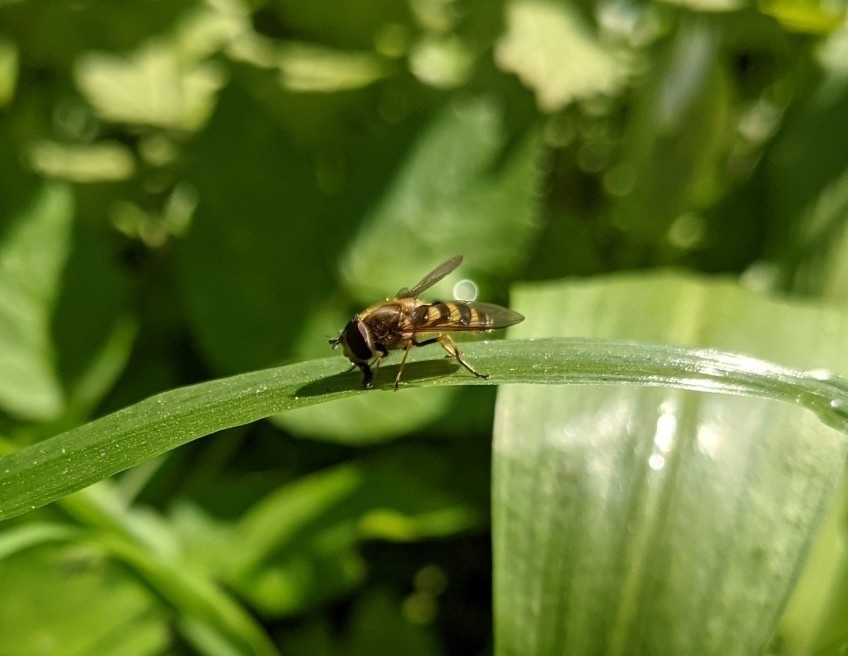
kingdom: Animalia
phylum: Arthropoda
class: Insecta
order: Diptera
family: Syrphidae
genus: Syrphus
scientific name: Syrphus
